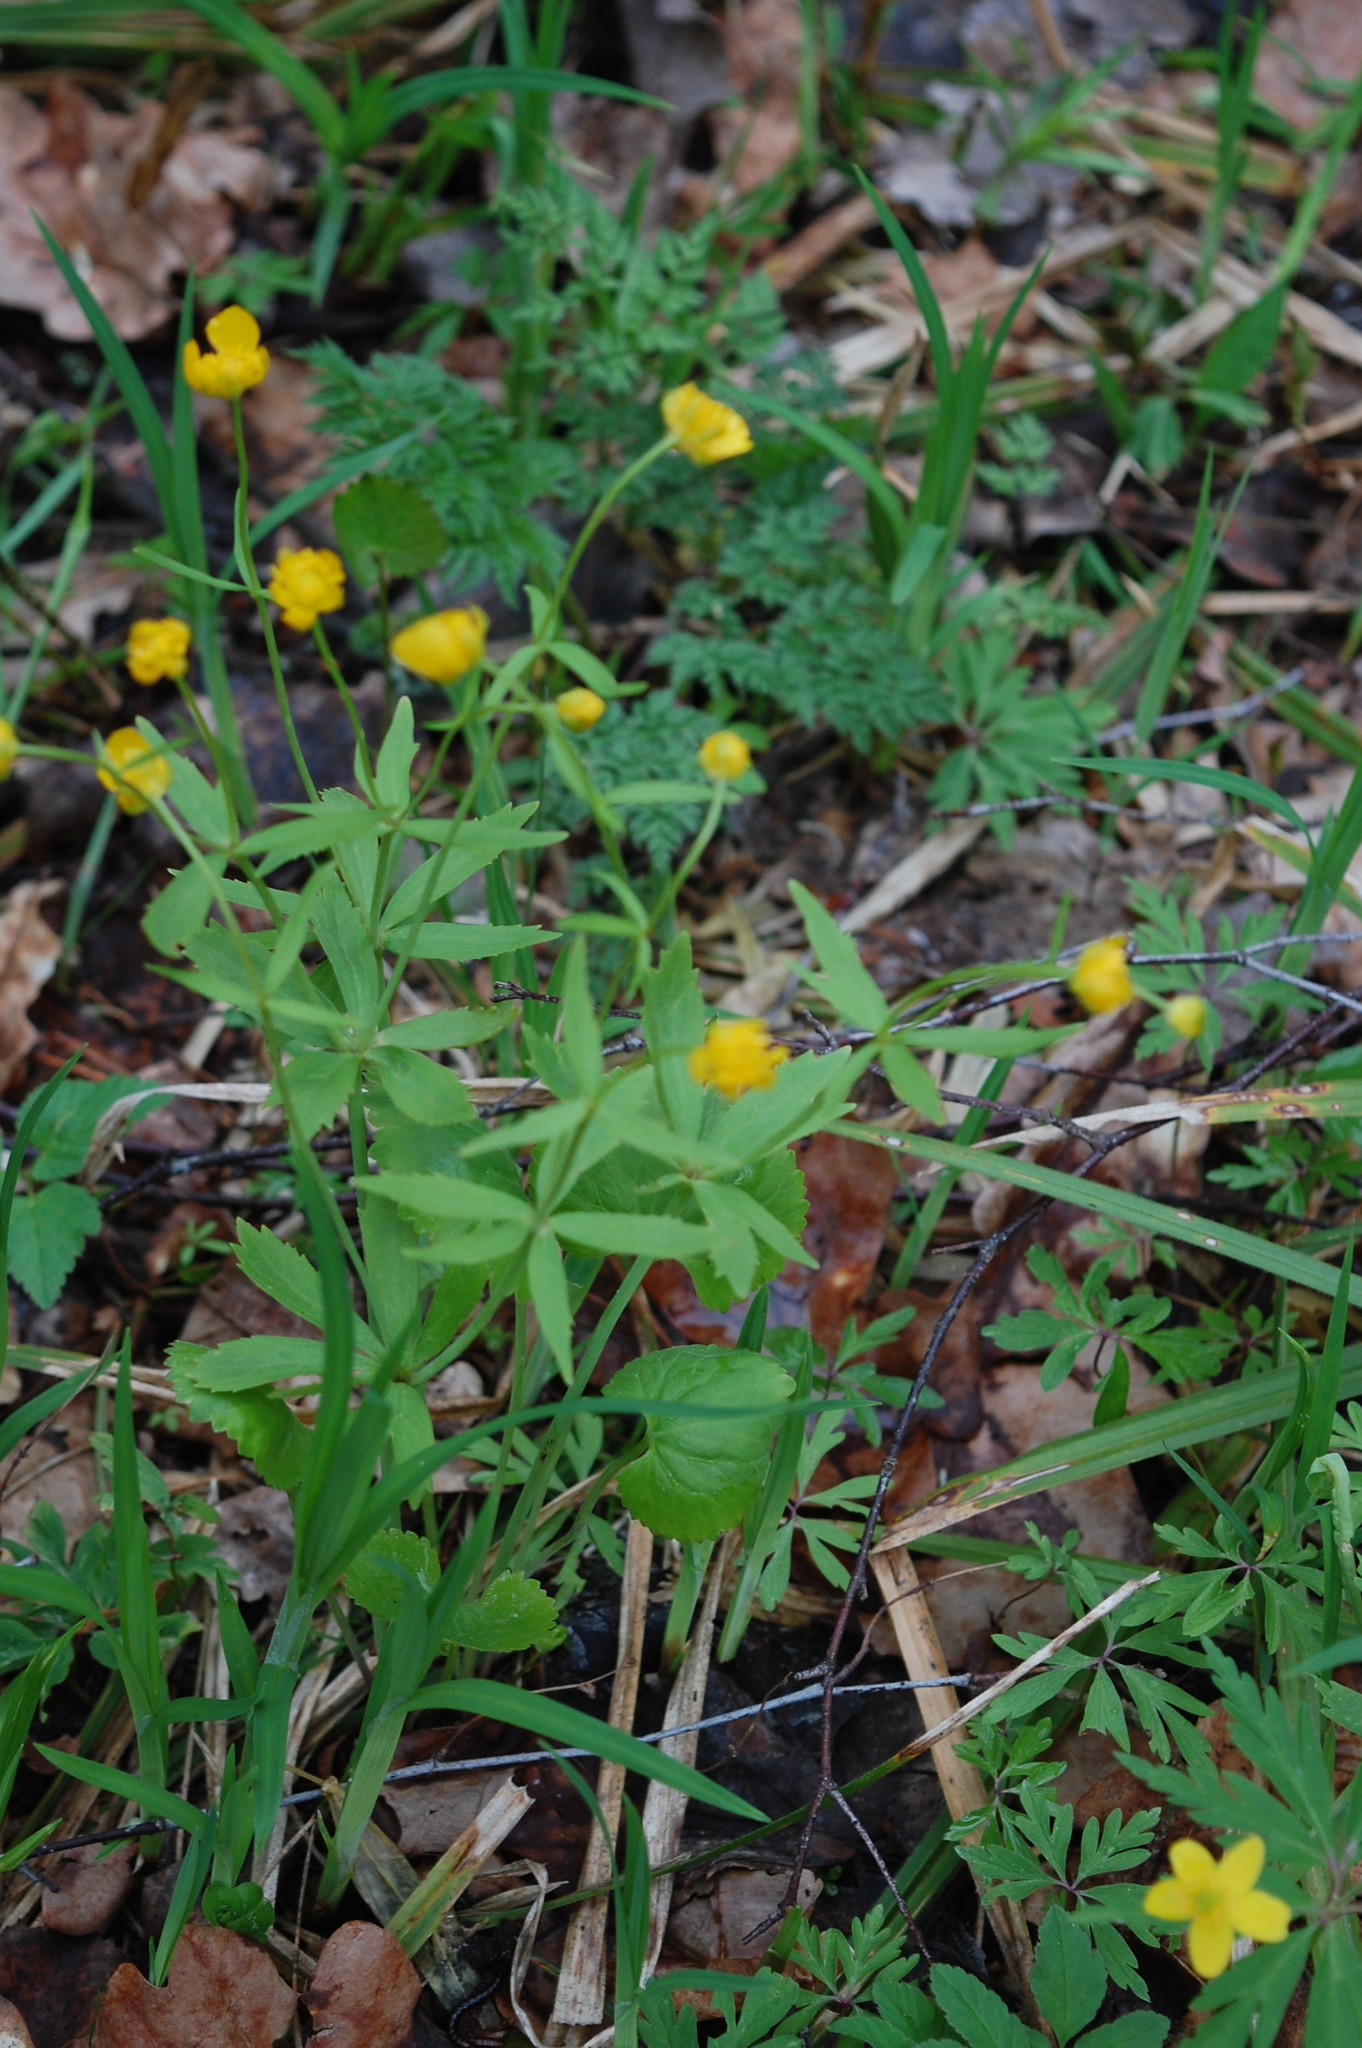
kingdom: Plantae
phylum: Tracheophyta
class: Magnoliopsida
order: Ranunculales
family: Ranunculaceae
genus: Ranunculus
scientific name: Ranunculus cassubicus
